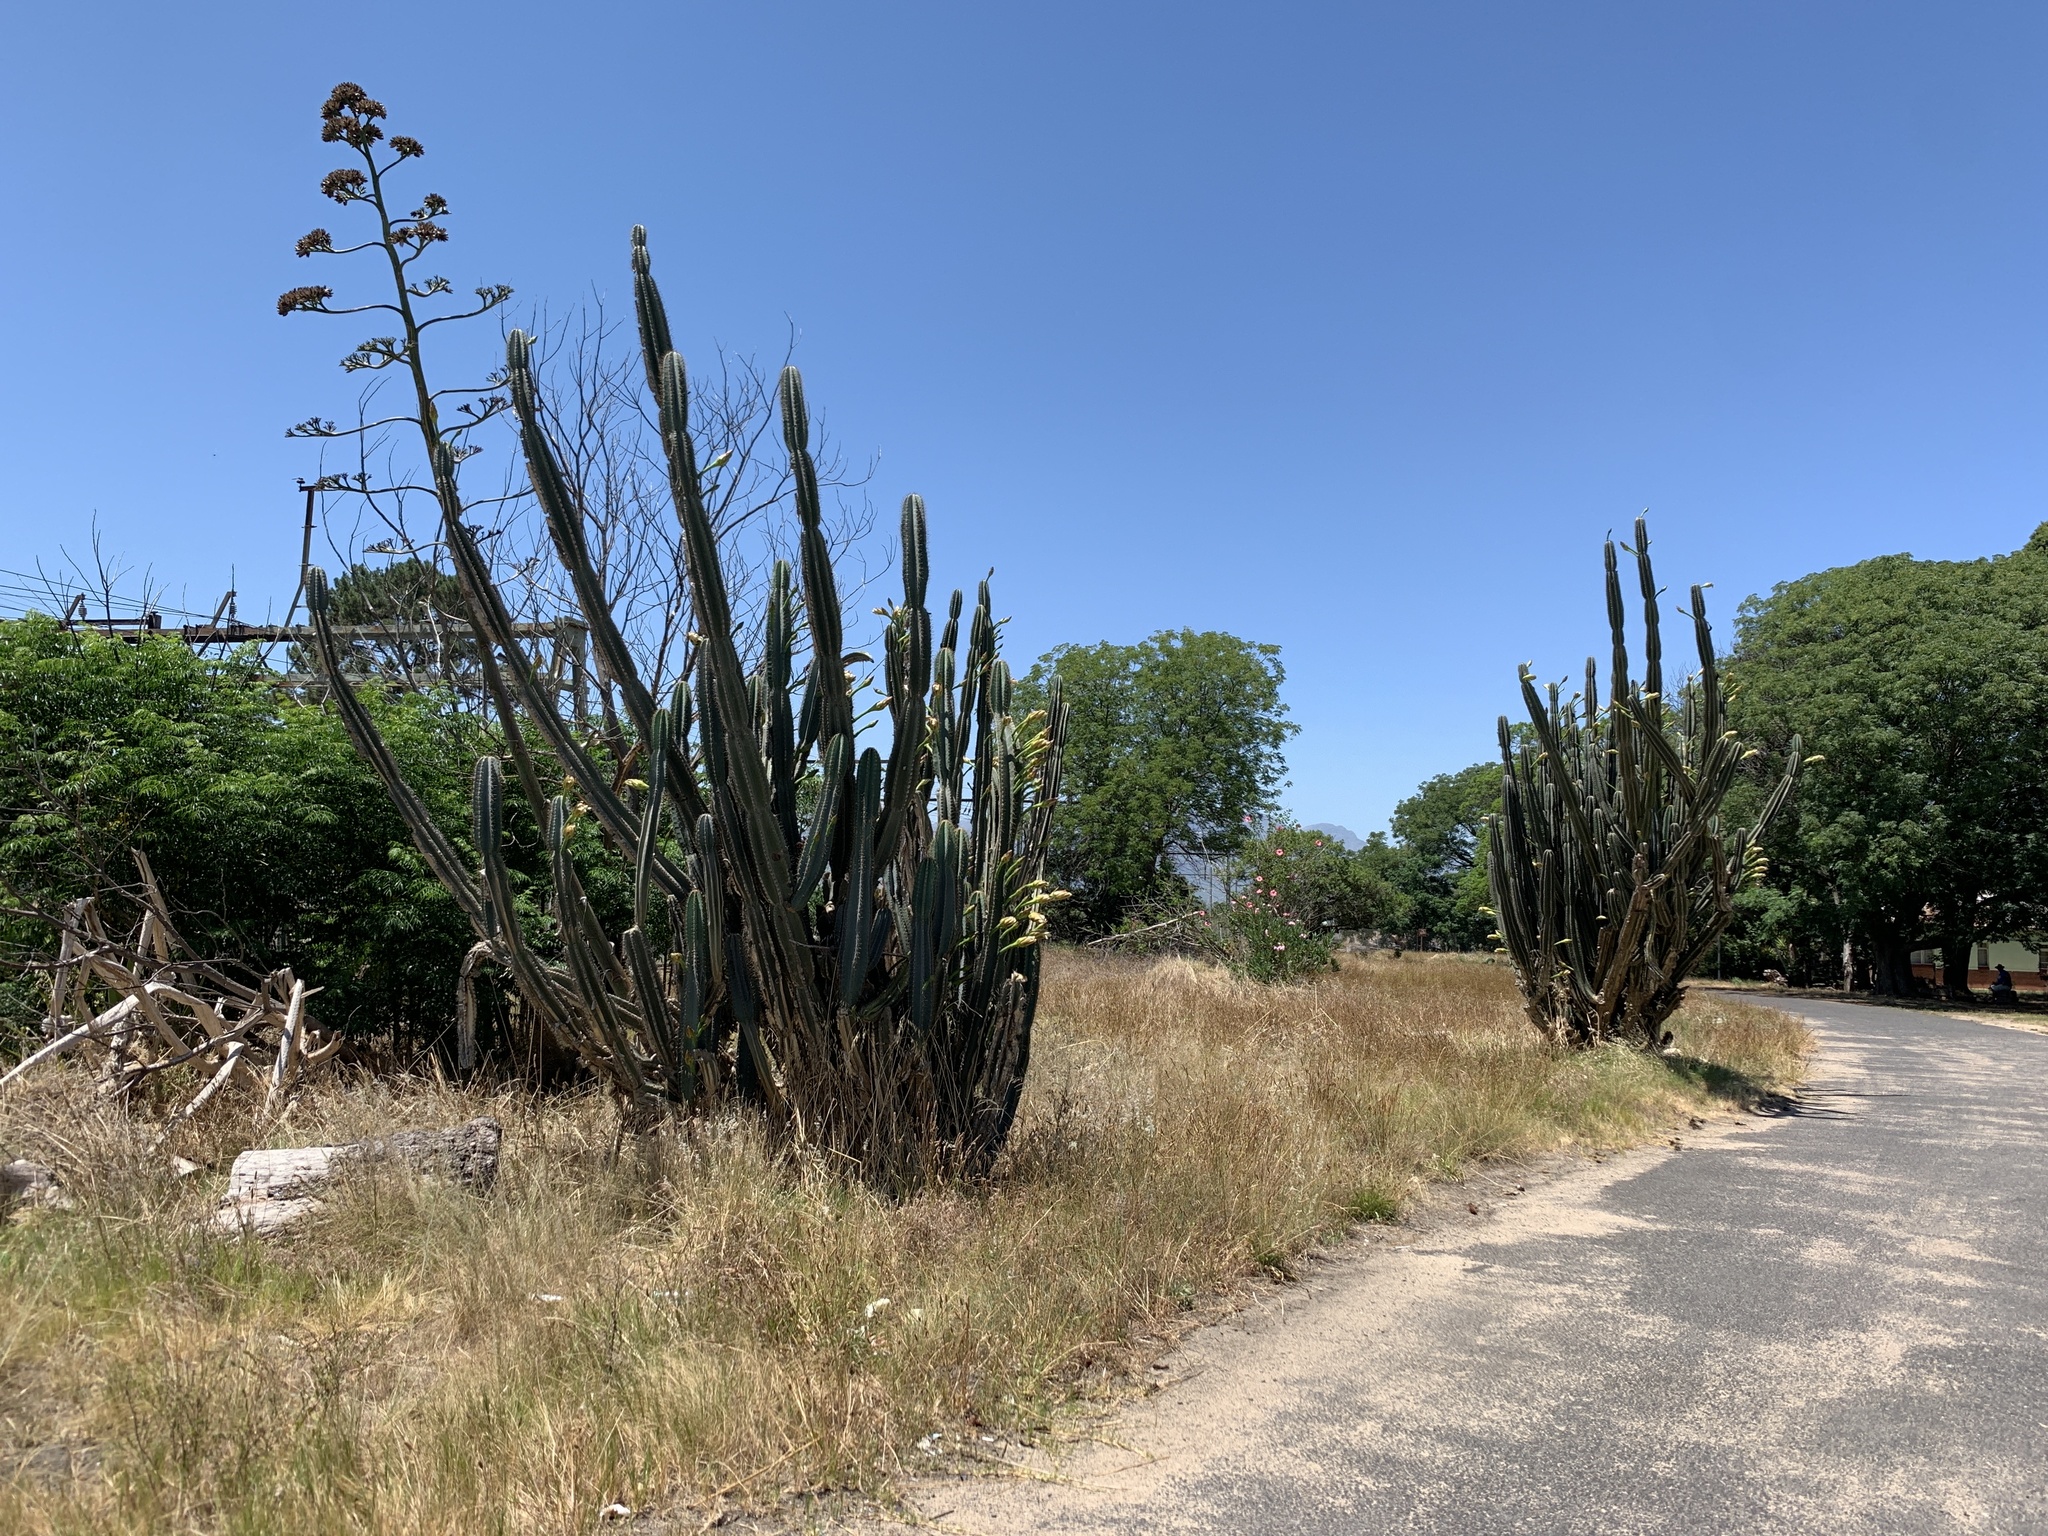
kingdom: Plantae
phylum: Tracheophyta
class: Magnoliopsida
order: Caryophyllales
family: Cactaceae
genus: Cereus
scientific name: Cereus jamacaru
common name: Queen-of-the-night
